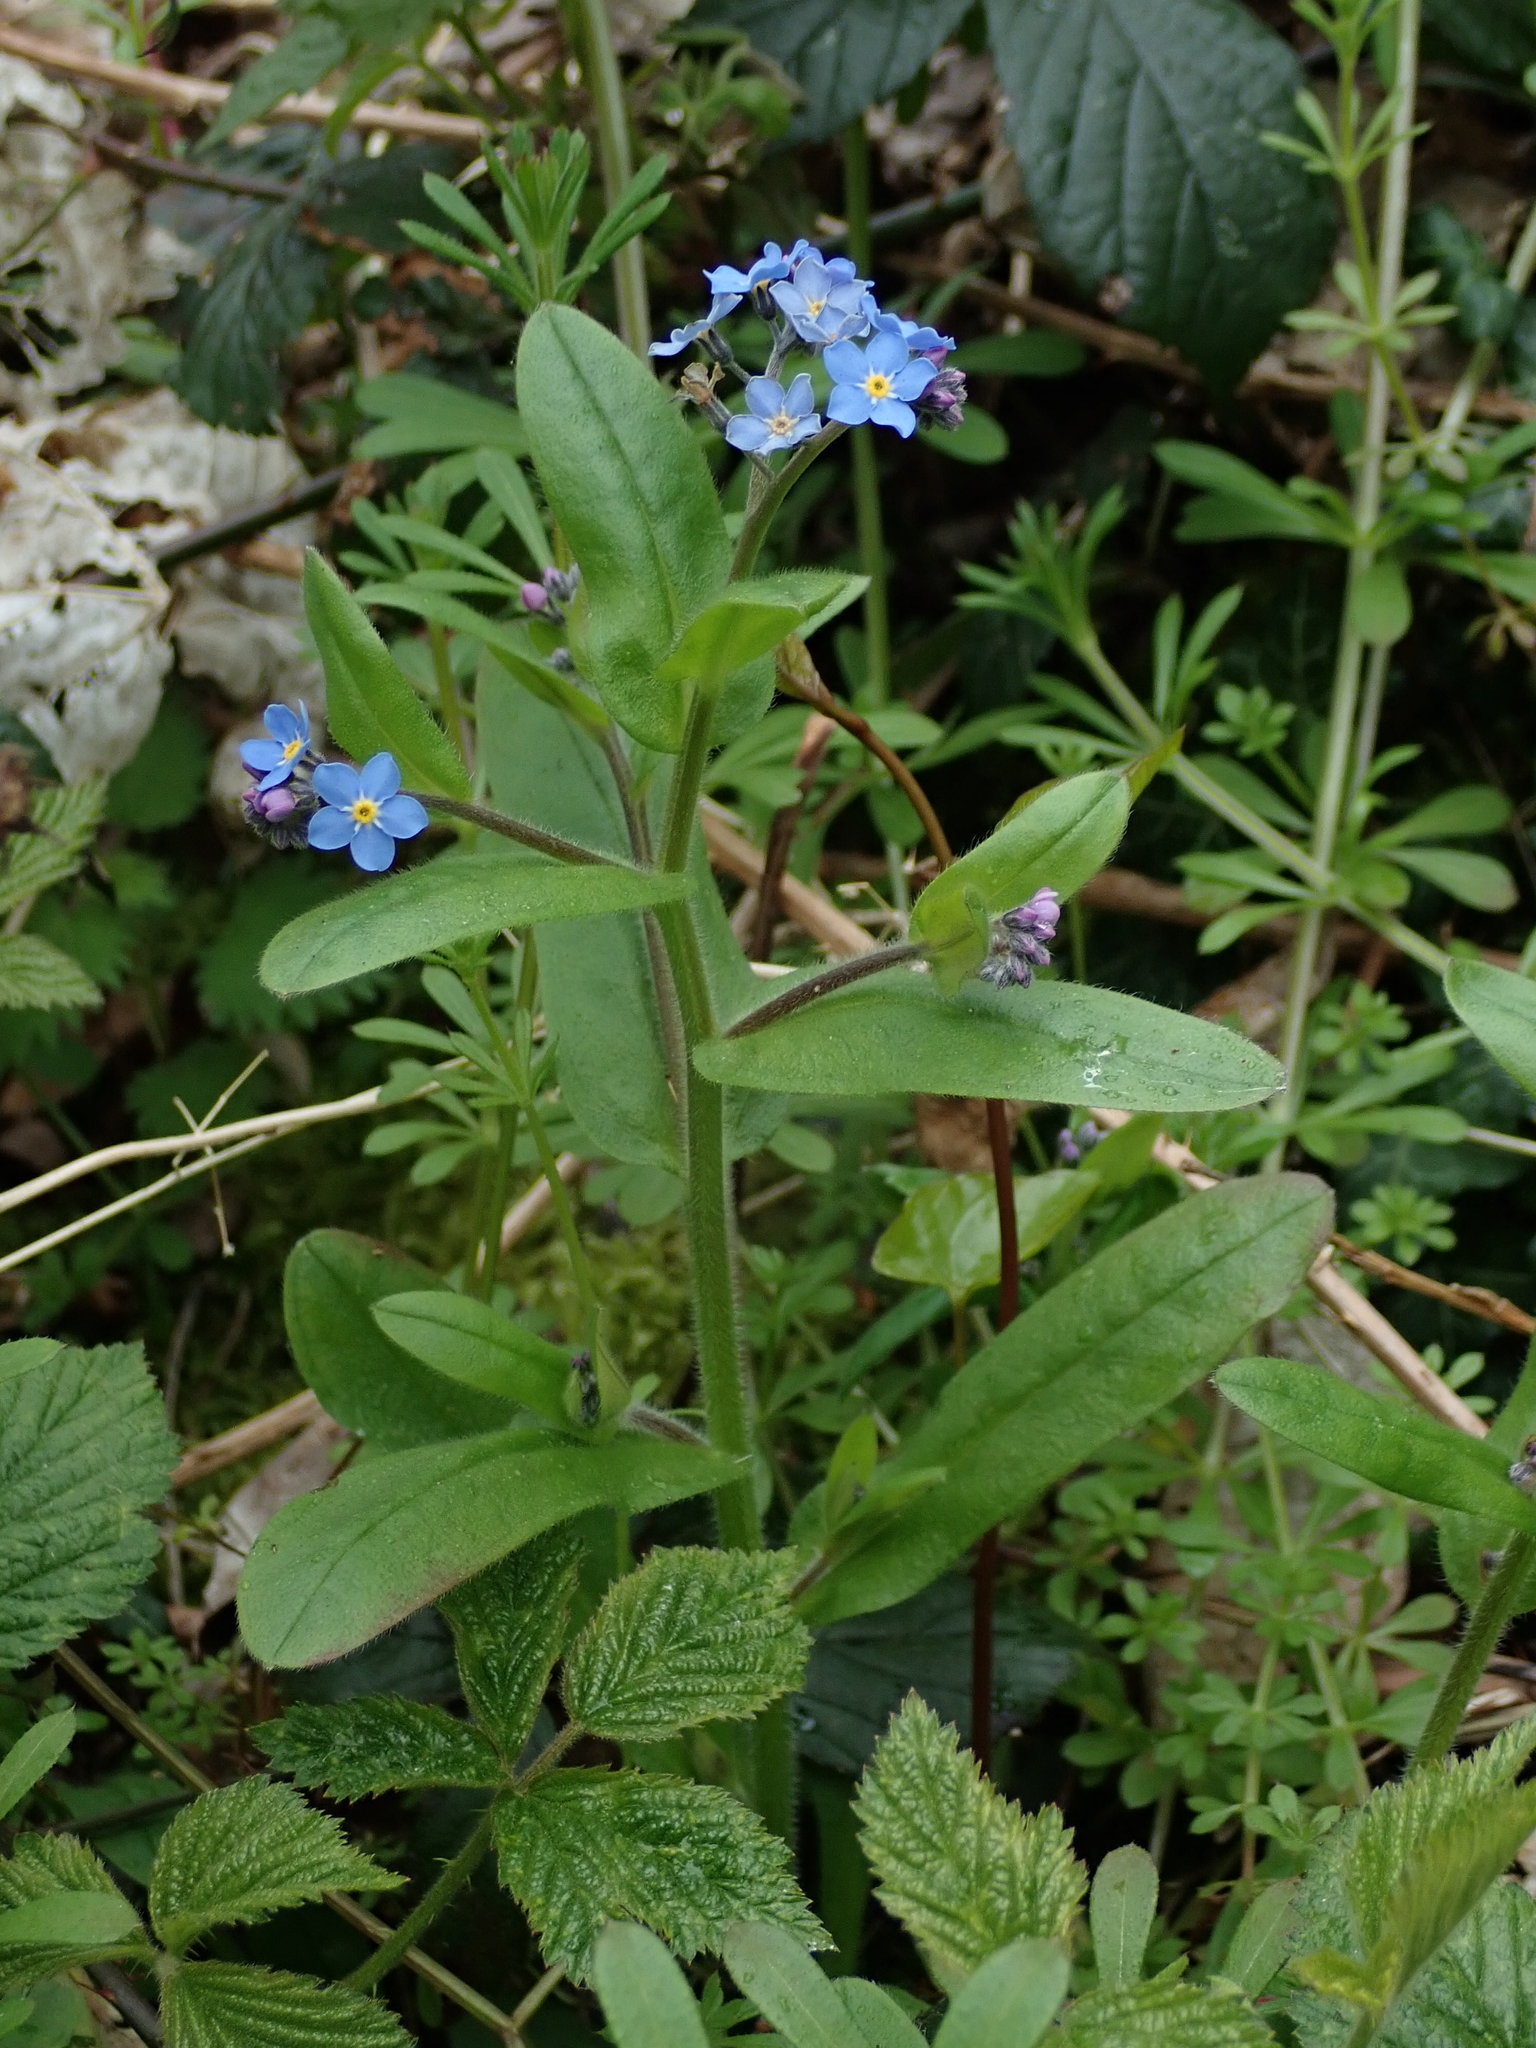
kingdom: Plantae
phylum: Tracheophyta
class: Magnoliopsida
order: Boraginales
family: Boraginaceae
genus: Myosotis
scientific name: Myosotis sylvatica
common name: Wood forget-me-not
